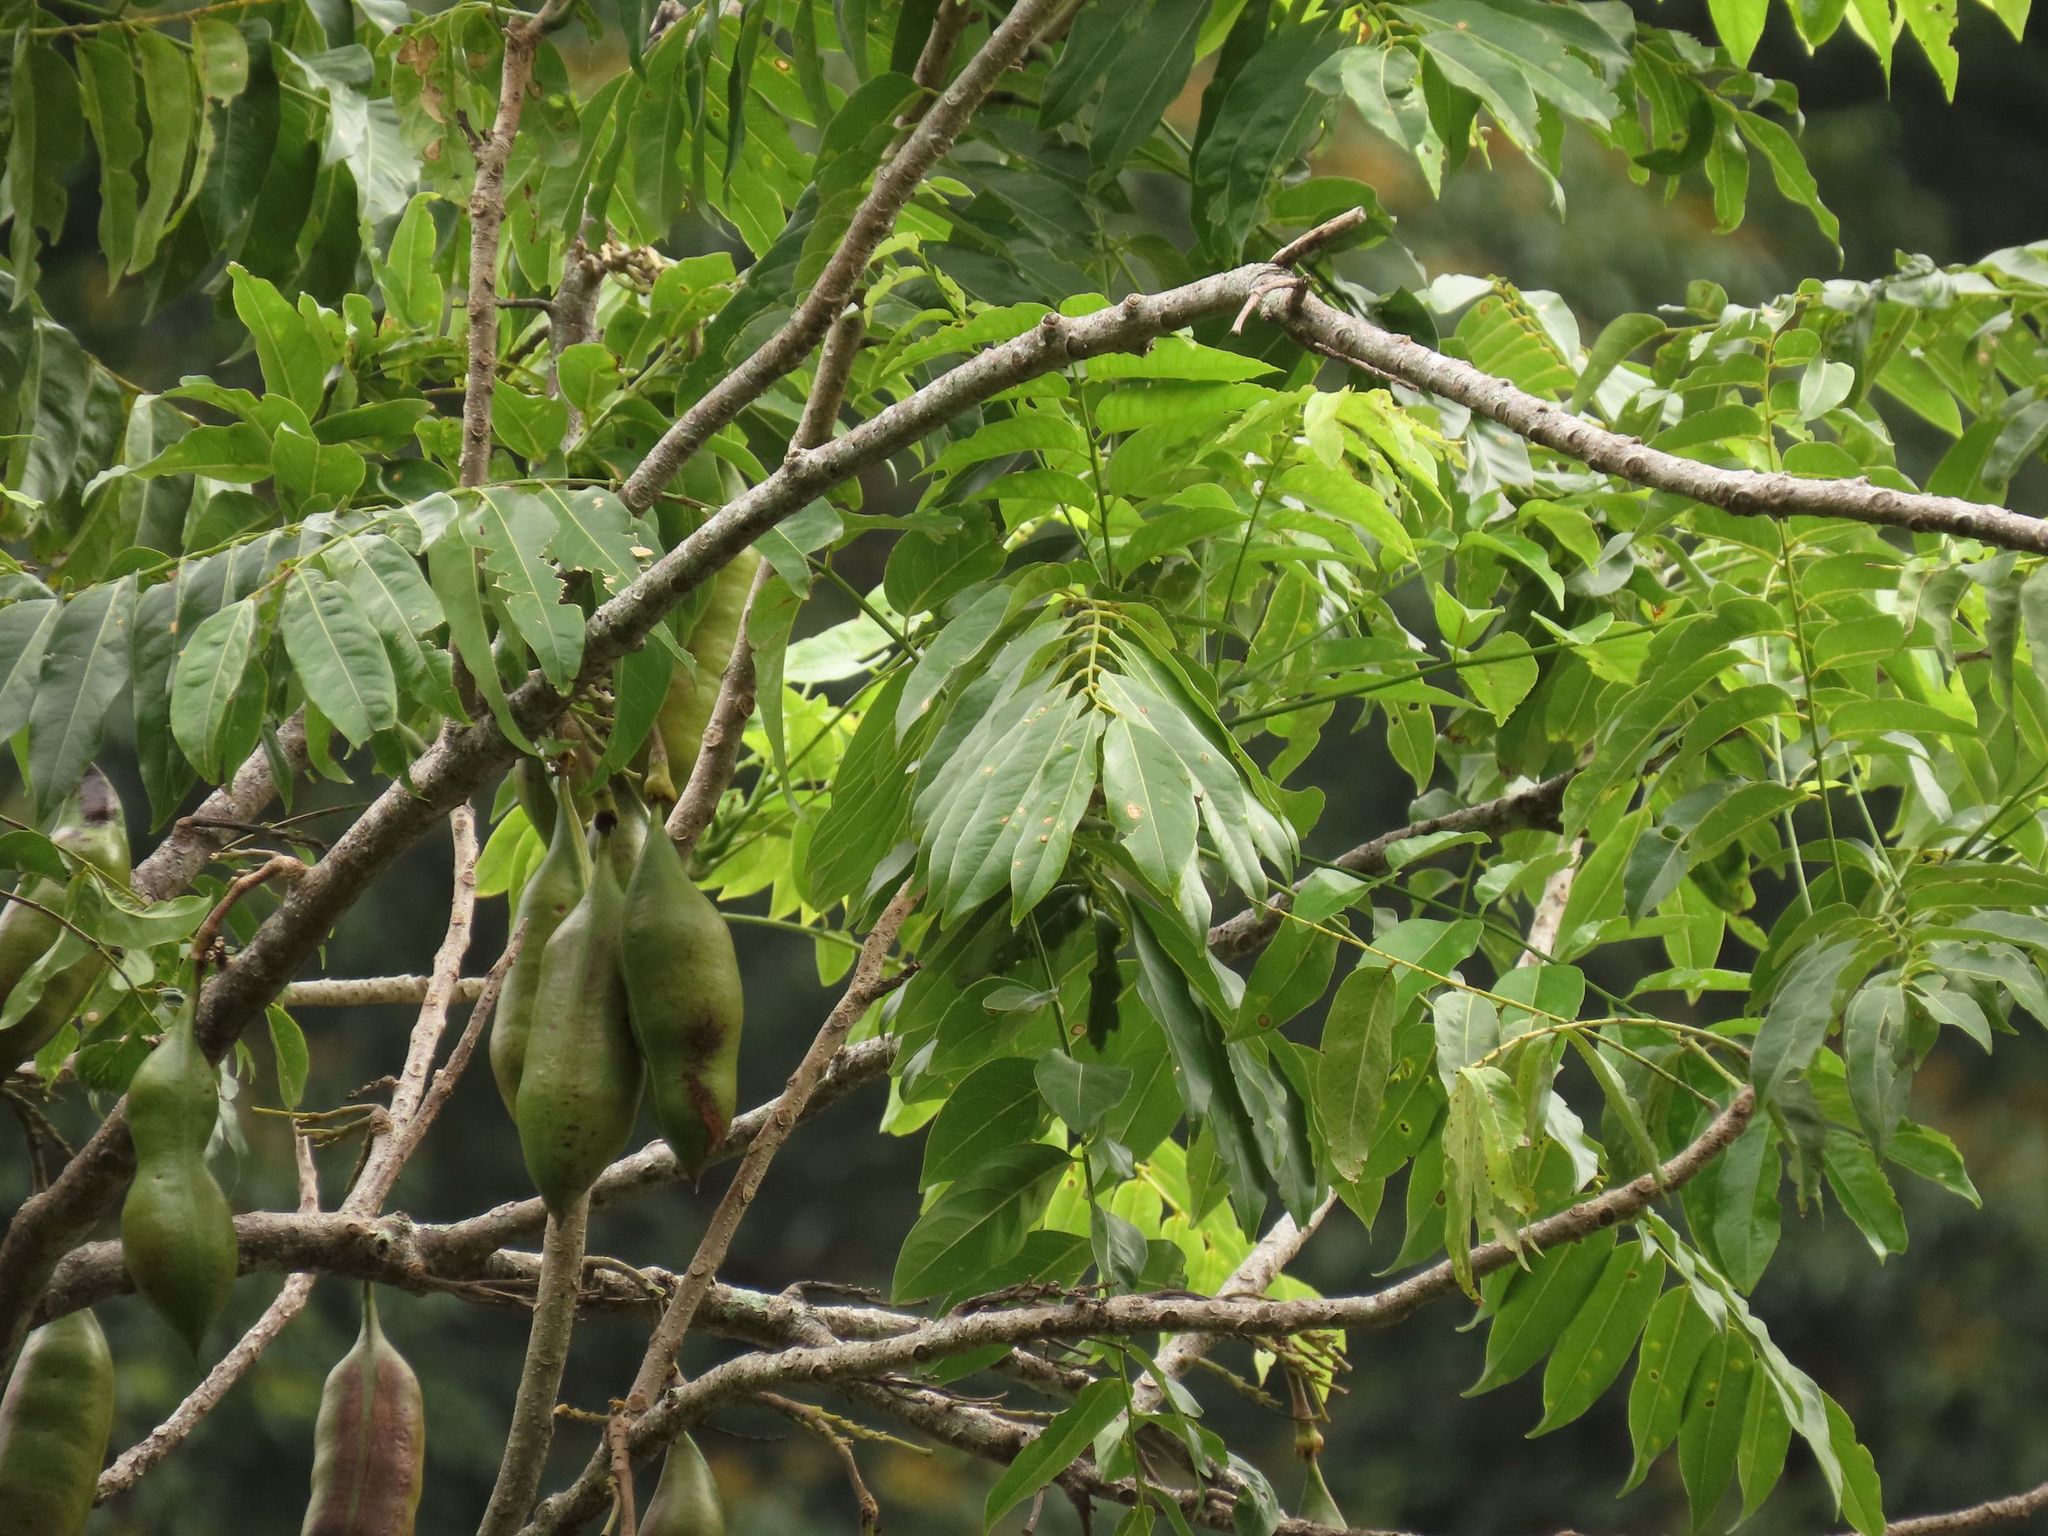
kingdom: Plantae
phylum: Tracheophyta
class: Magnoliopsida
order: Fabales
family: Fabaceae
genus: Castanospermum
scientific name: Castanospermum australe
